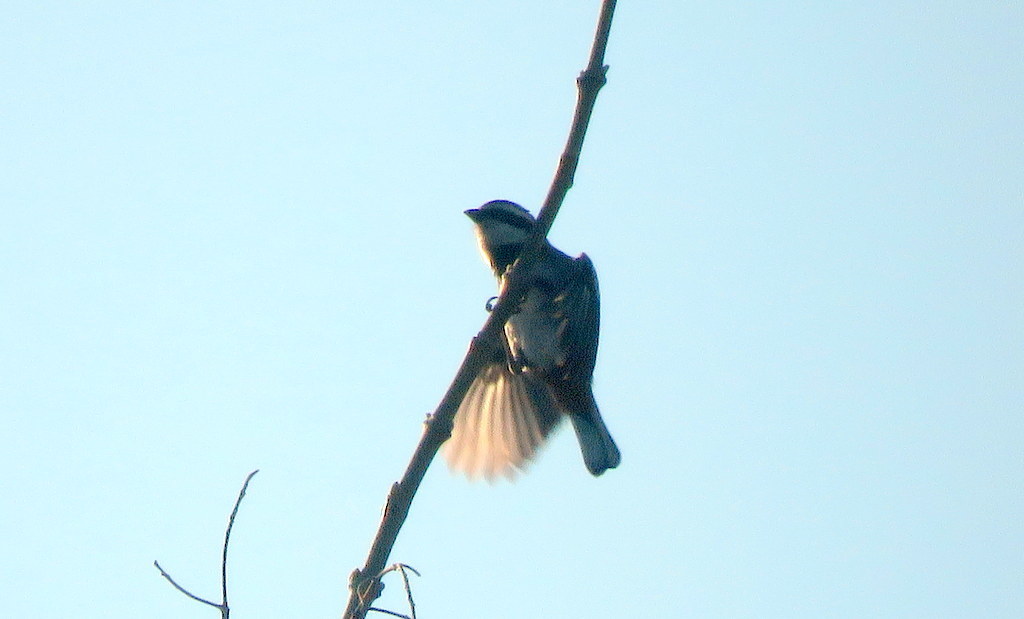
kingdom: Animalia
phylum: Chordata
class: Aves
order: Passeriformes
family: Thraupidae
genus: Microspingus
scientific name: Microspingus torquatus
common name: Ringed warbling-finch
